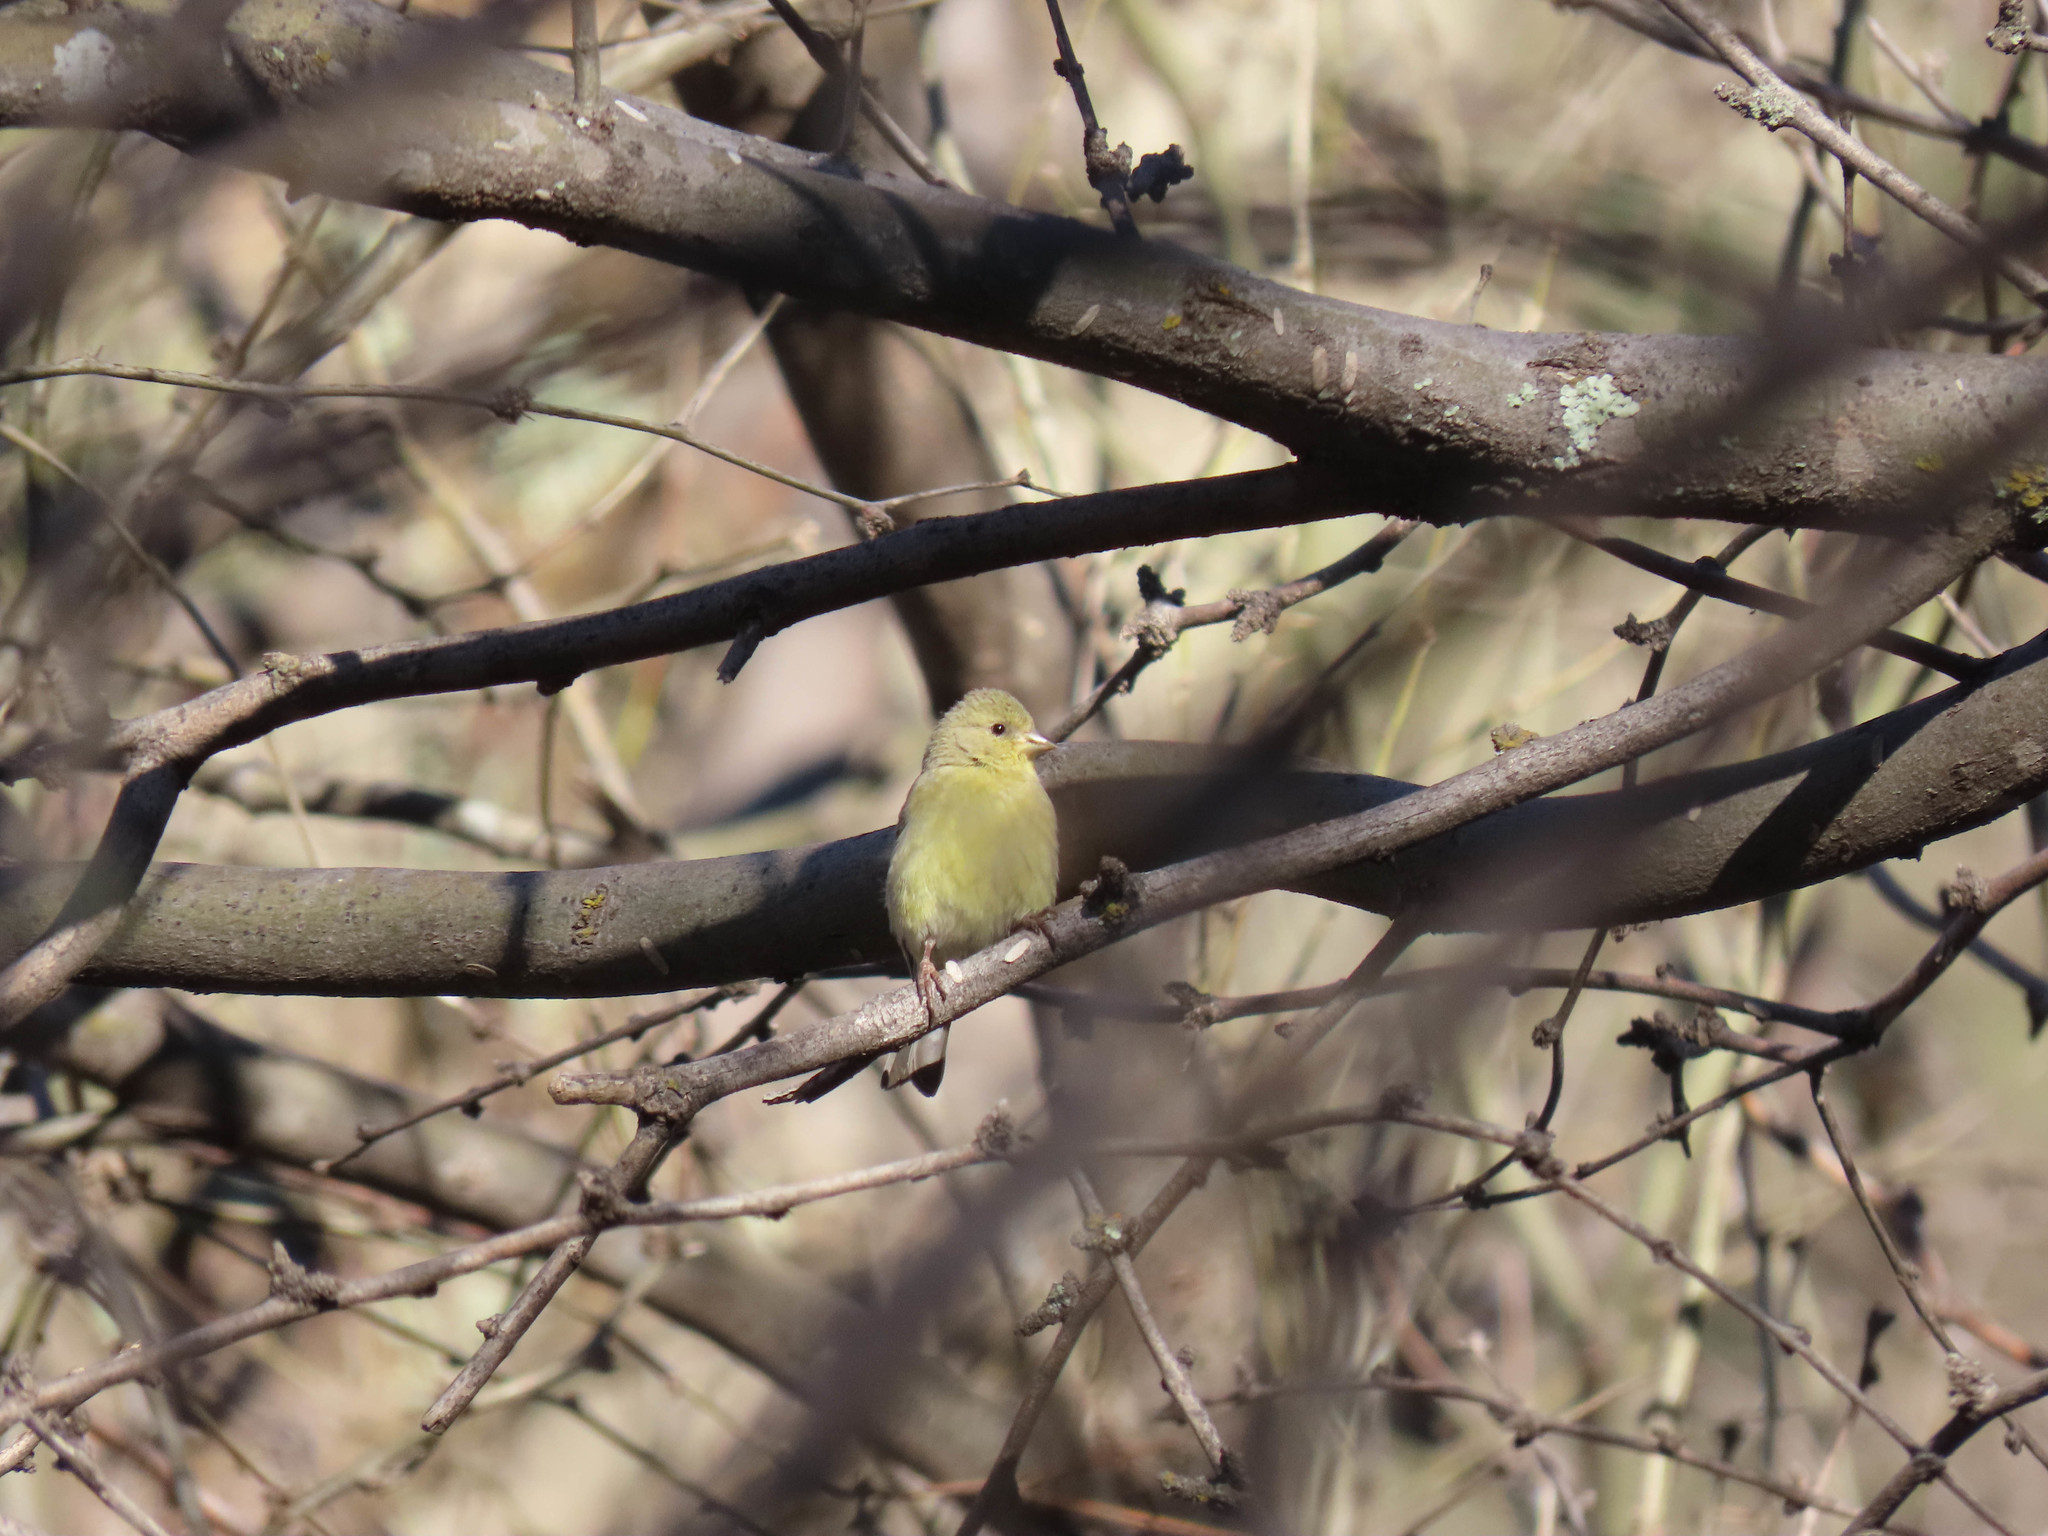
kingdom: Animalia
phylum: Chordata
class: Aves
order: Passeriformes
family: Fringillidae
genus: Spinus
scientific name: Spinus psaltria
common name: Lesser goldfinch
